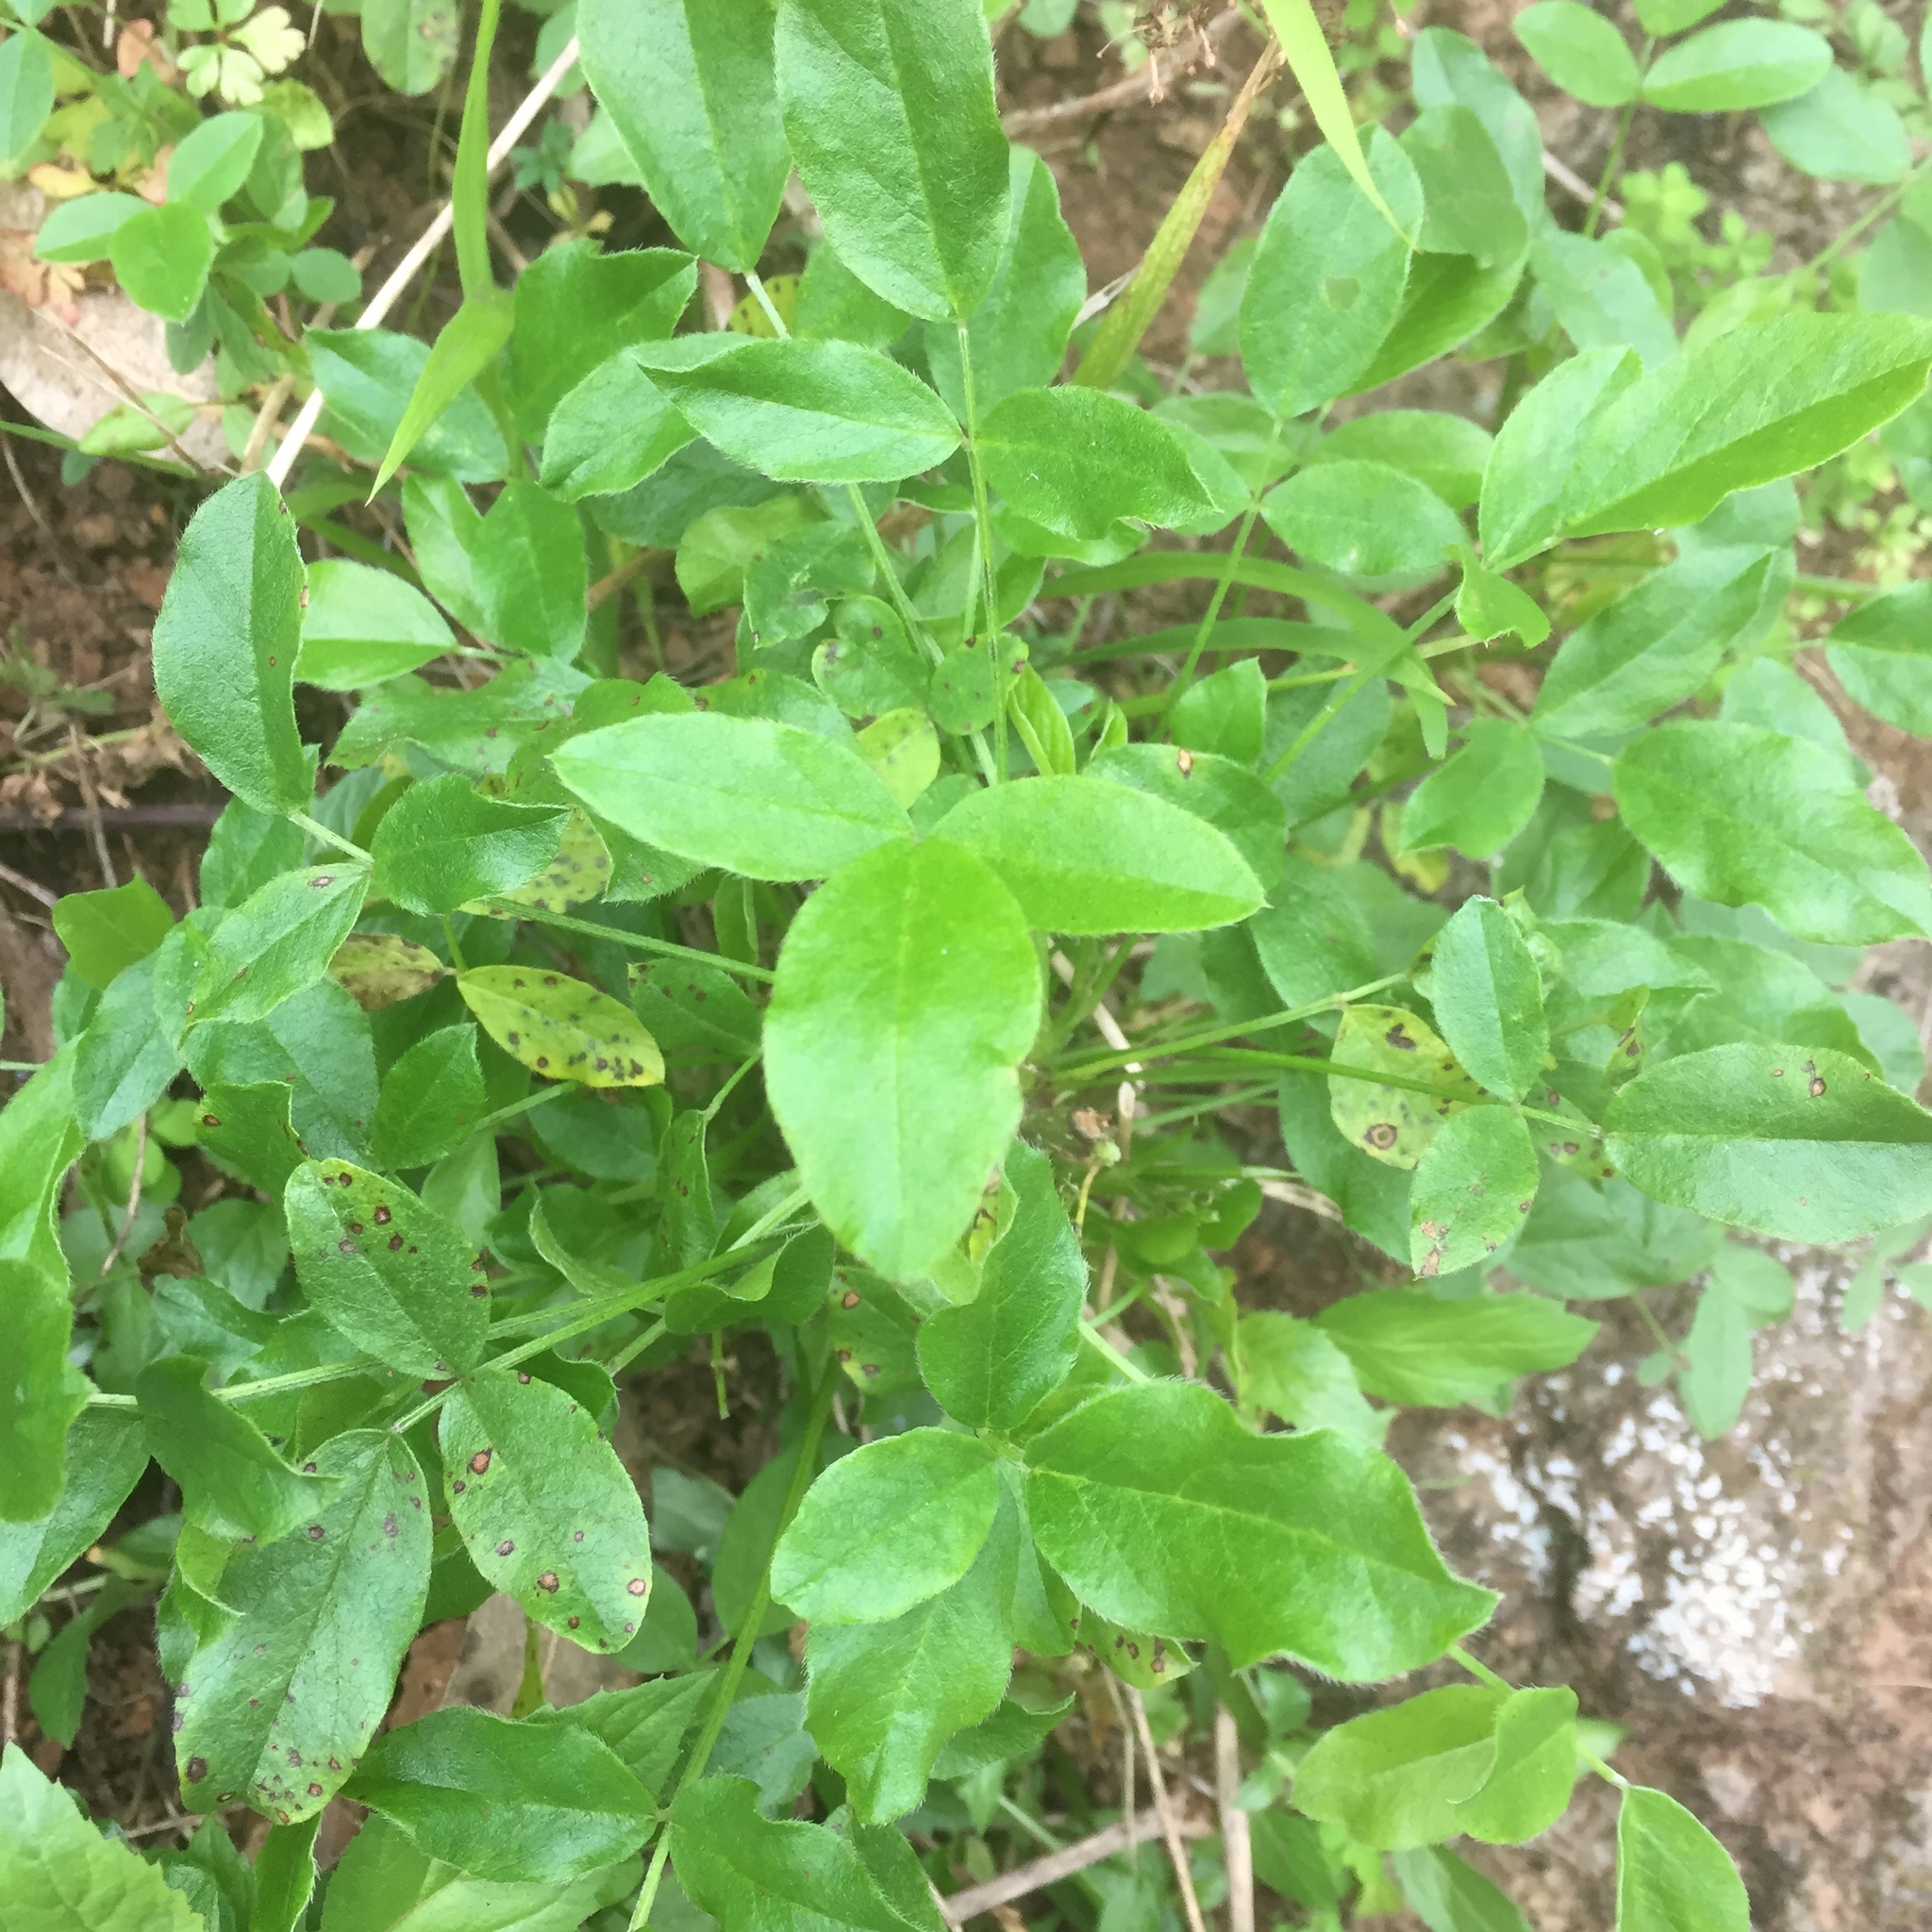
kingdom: Plantae
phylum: Tracheophyta
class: Magnoliopsida
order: Fabales
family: Fabaceae
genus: Bituminaria
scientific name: Bituminaria bituminosa
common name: Arabian pea
